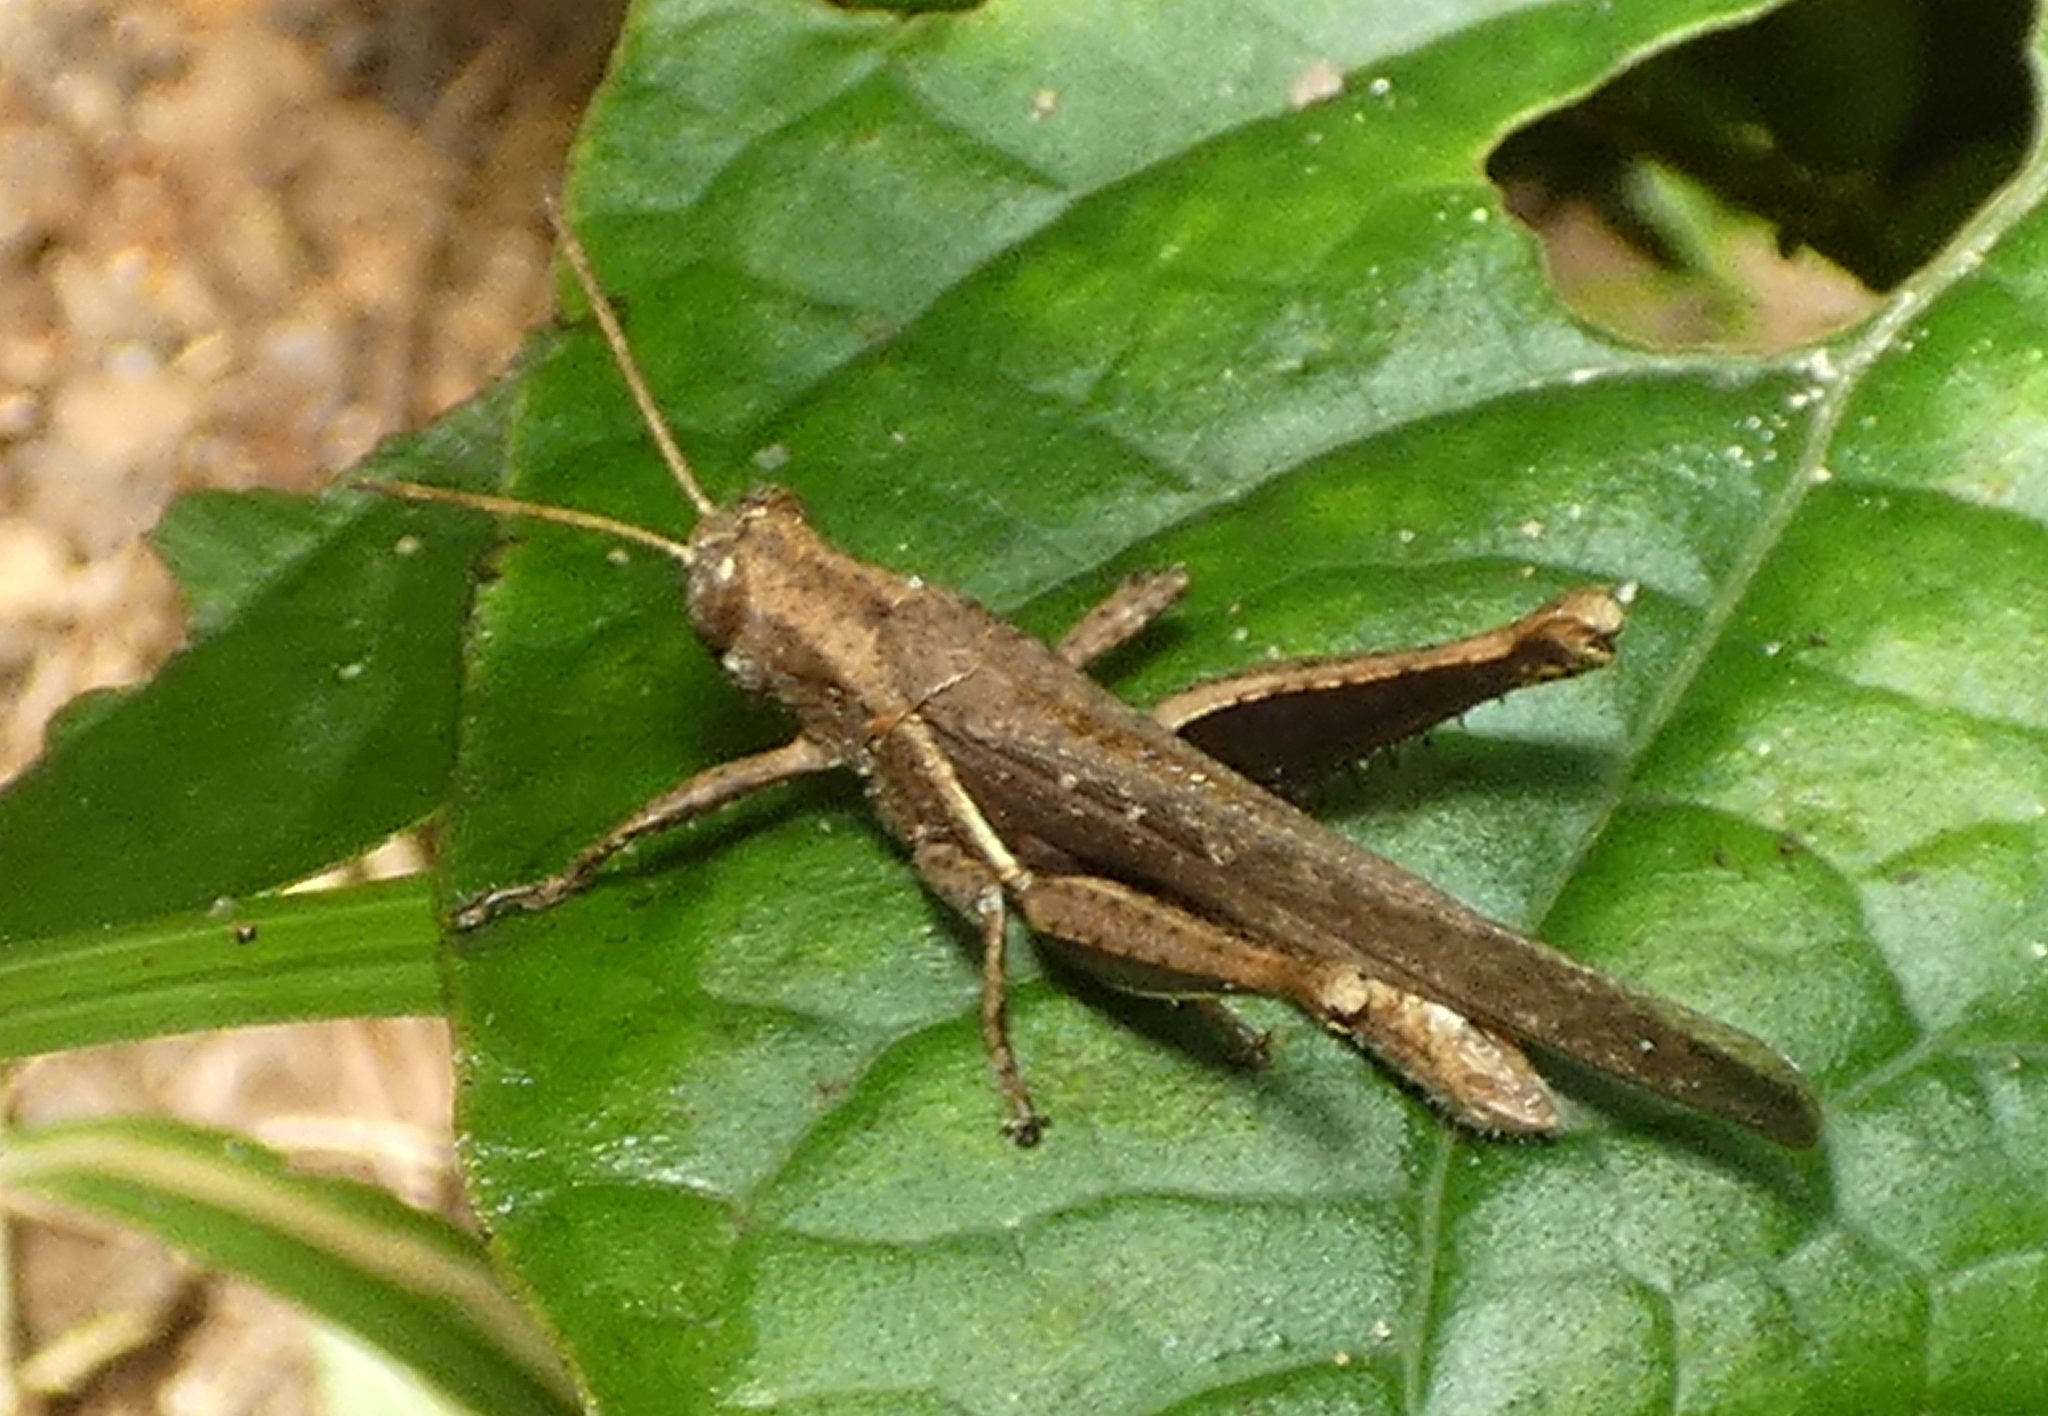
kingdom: Animalia
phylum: Arthropoda
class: Insecta
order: Orthoptera
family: Acrididae
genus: Abracris
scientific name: Abracris flavolineata
